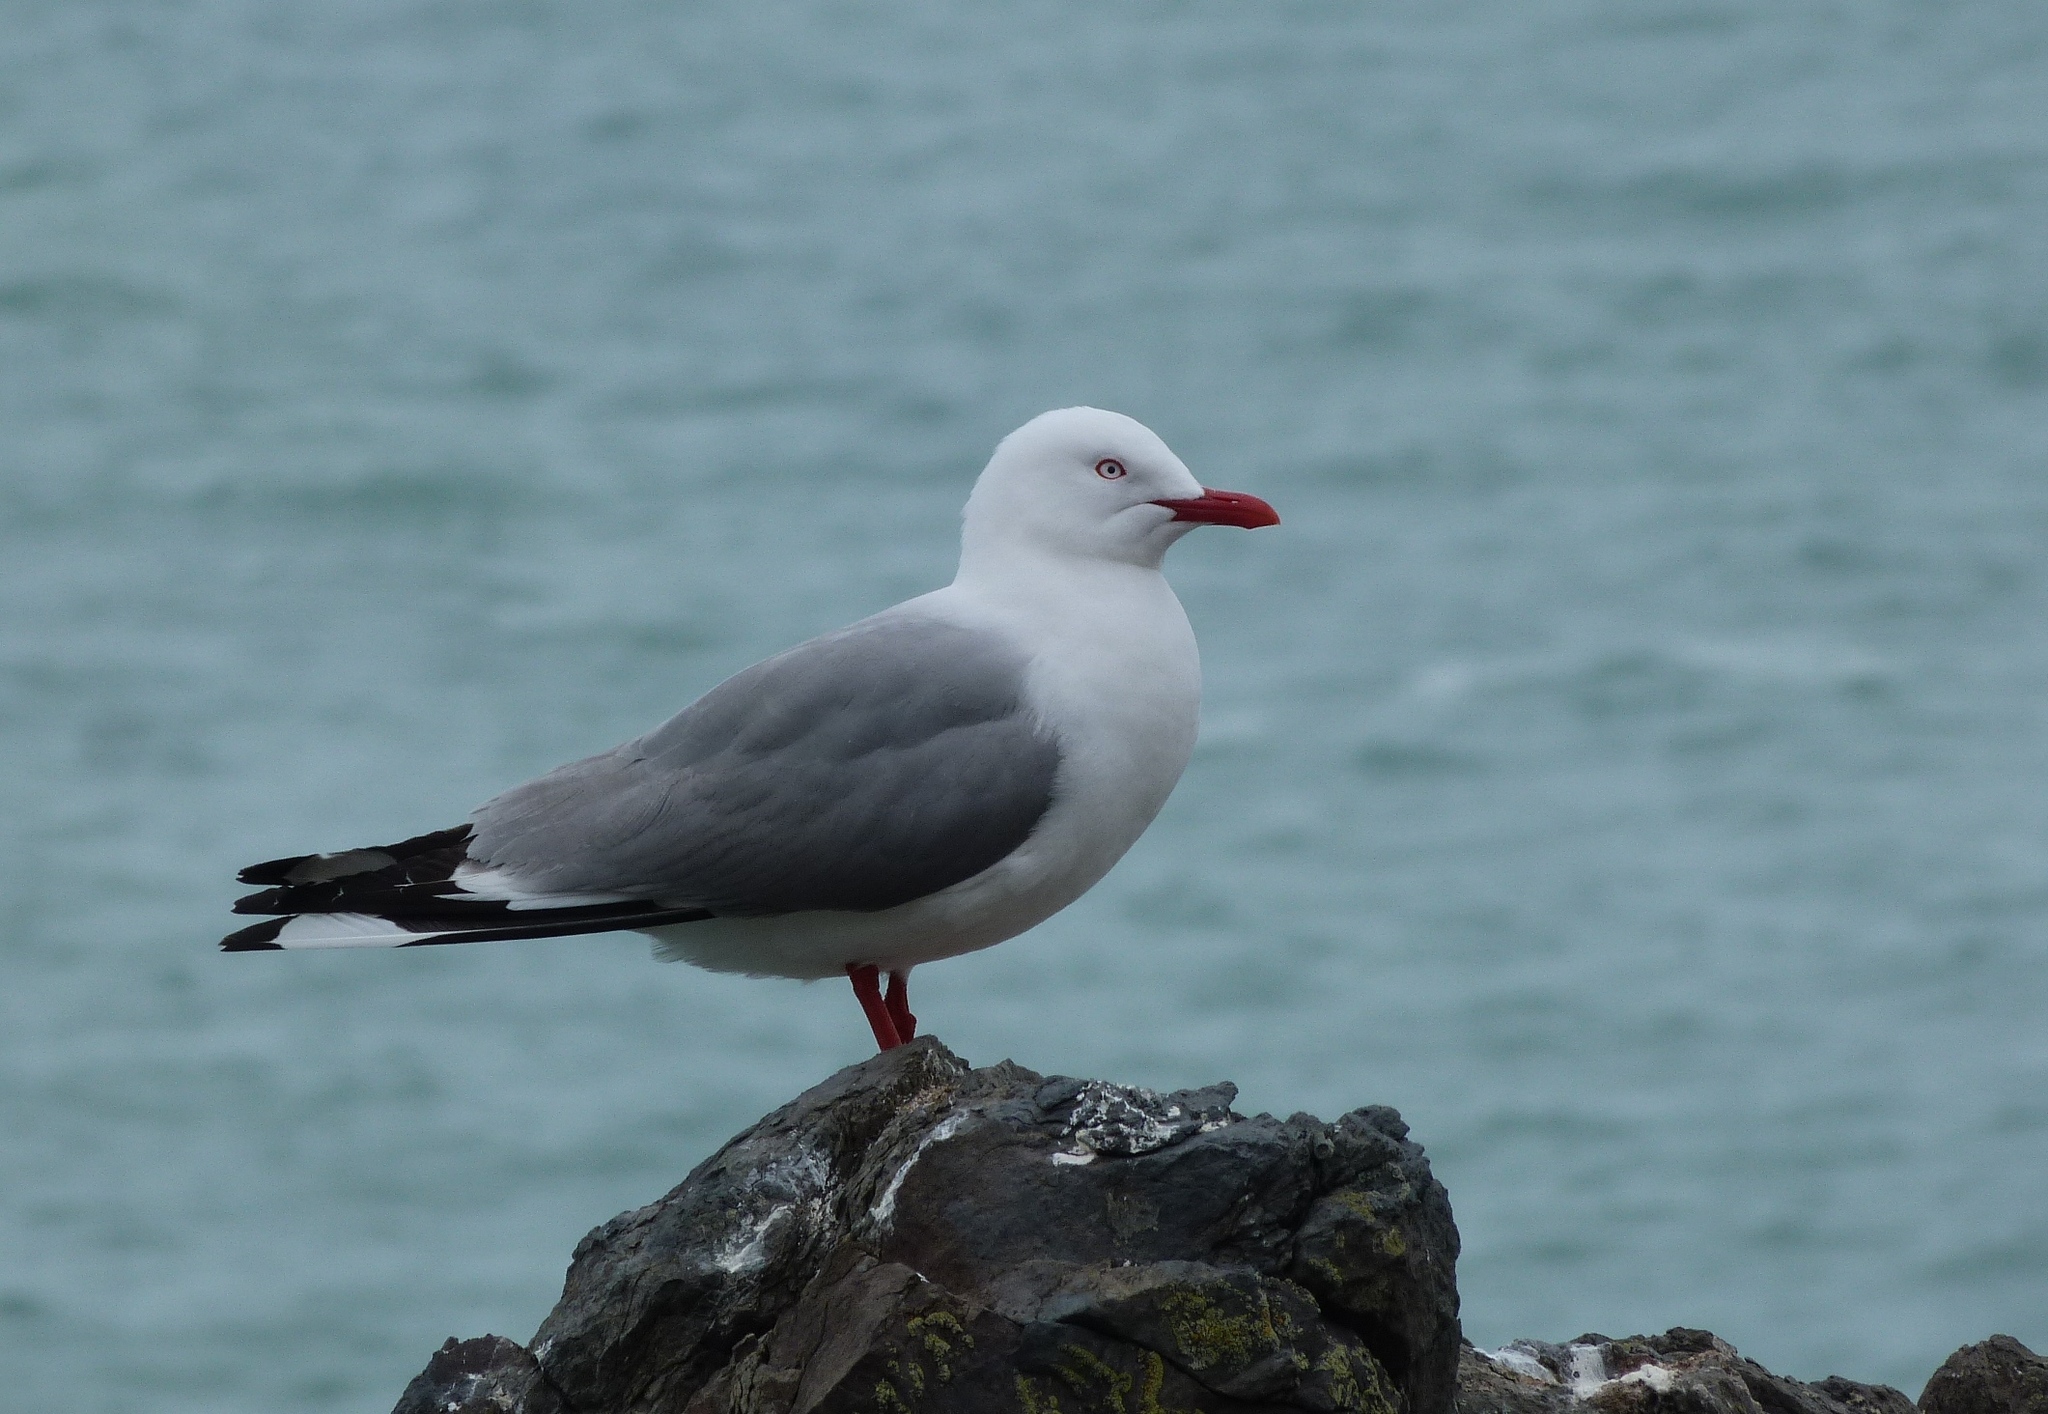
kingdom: Animalia
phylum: Chordata
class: Aves
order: Charadriiformes
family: Laridae
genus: Chroicocephalus
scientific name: Chroicocephalus novaehollandiae
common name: Silver gull
